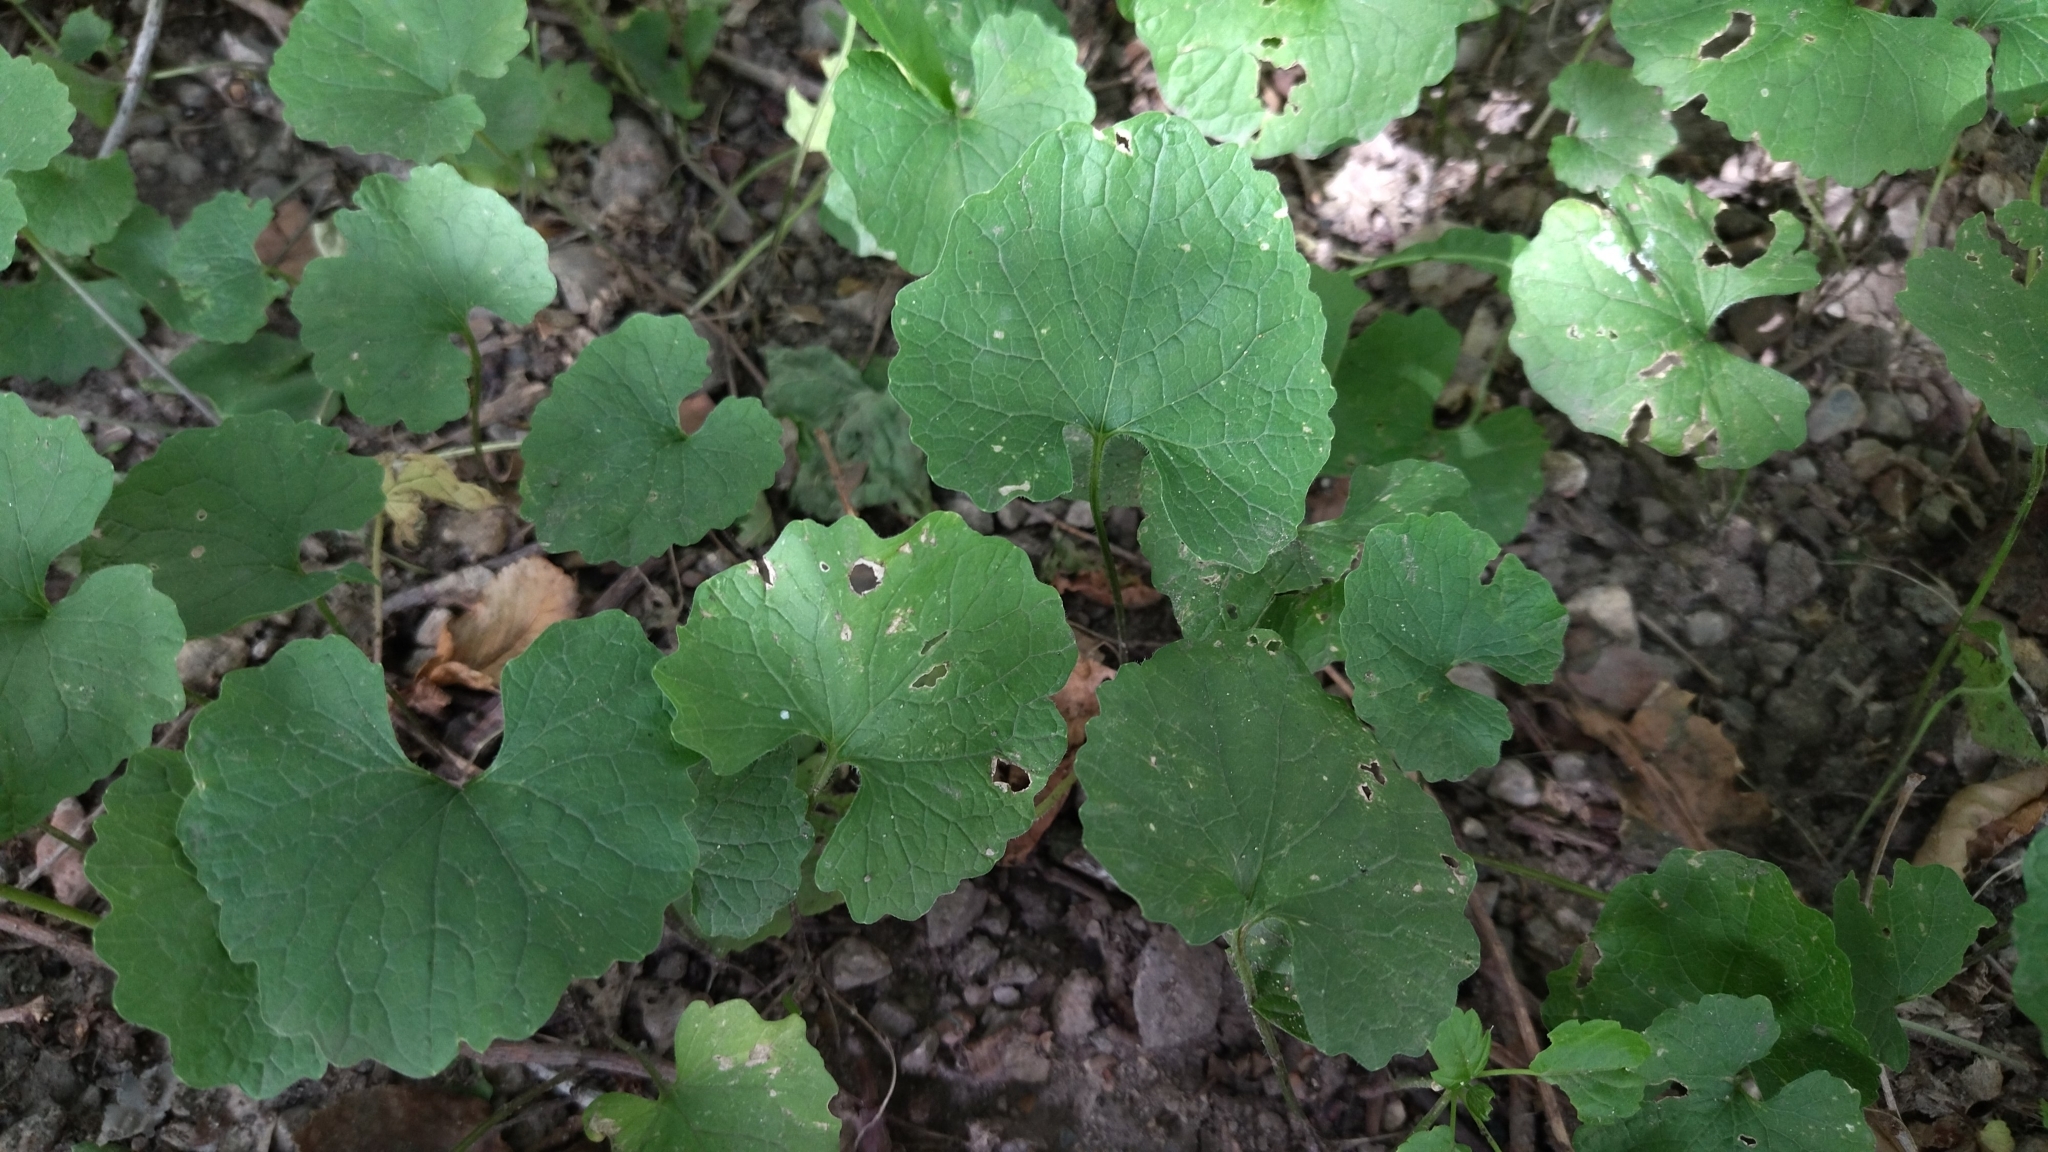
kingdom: Plantae
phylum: Tracheophyta
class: Magnoliopsida
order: Brassicales
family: Brassicaceae
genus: Alliaria
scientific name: Alliaria petiolata
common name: Garlic mustard
